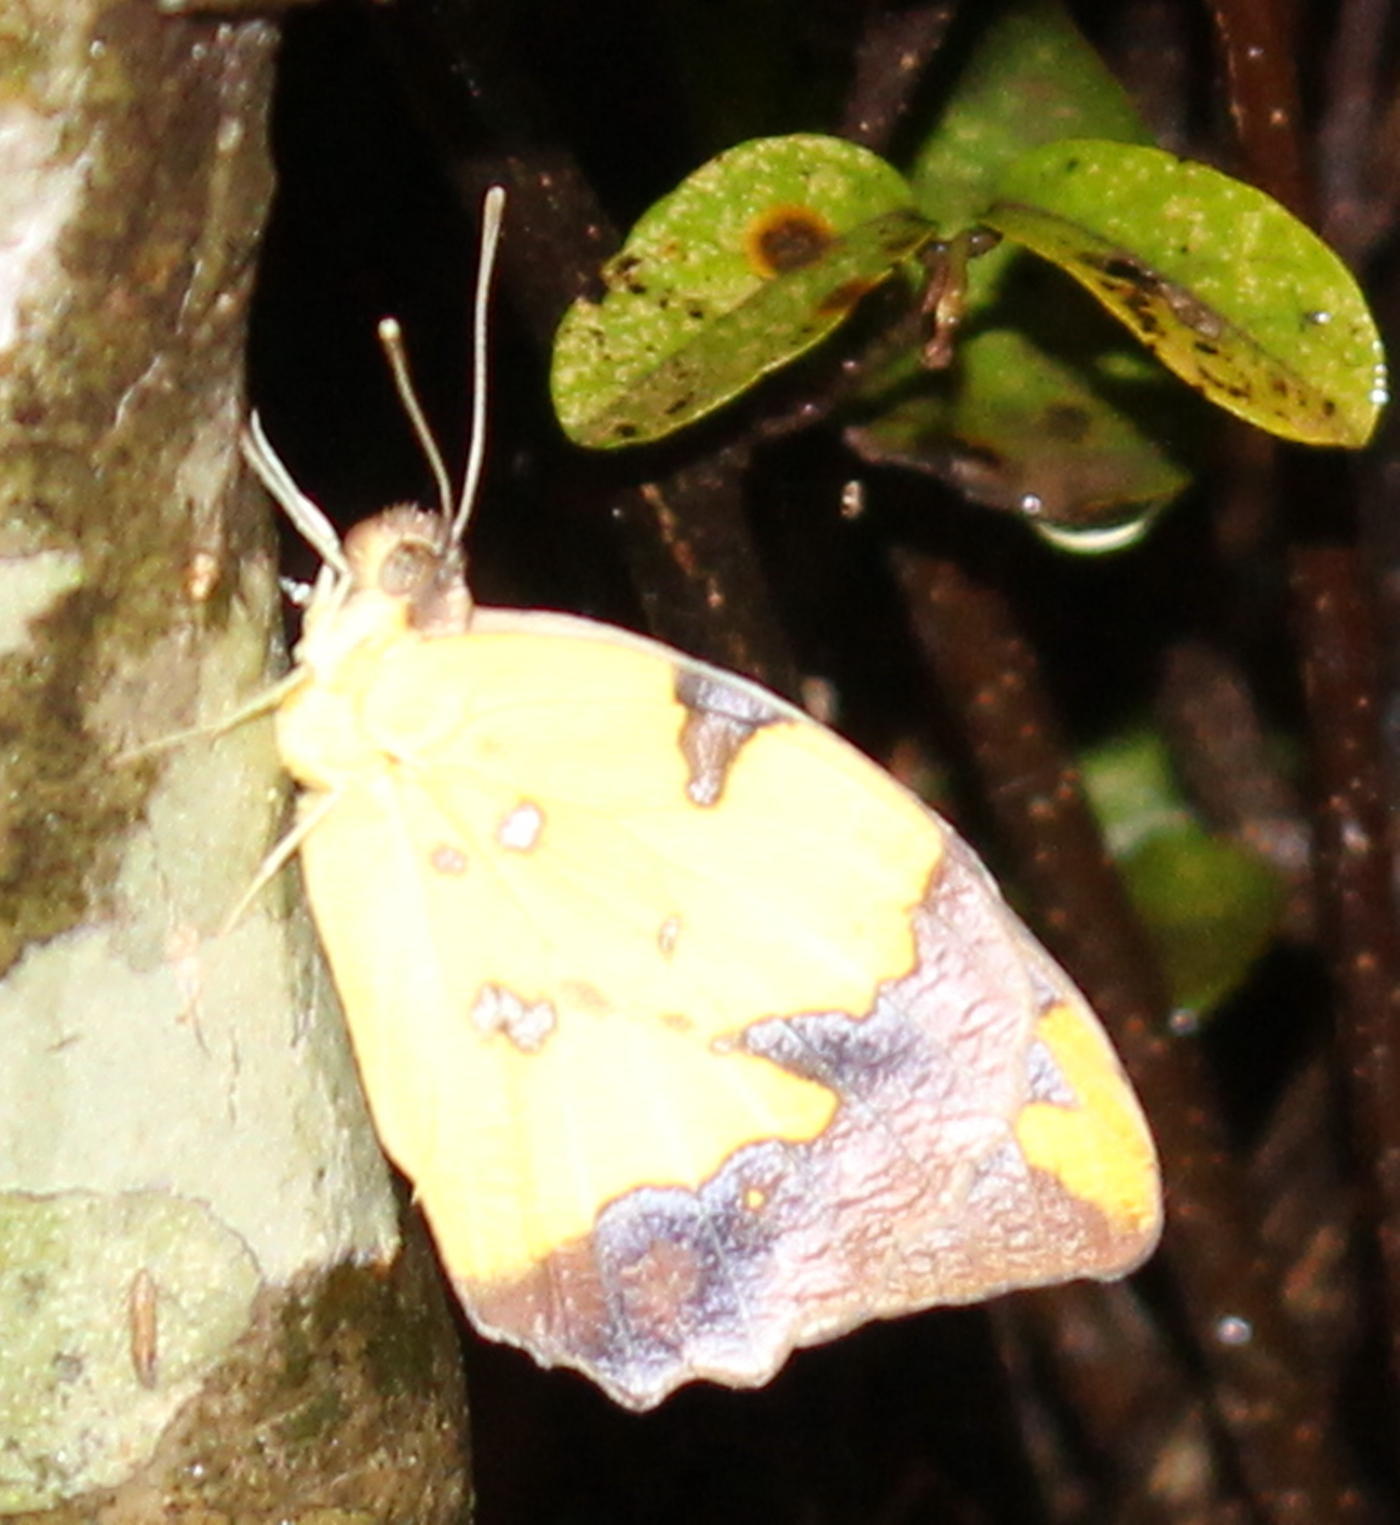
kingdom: Animalia
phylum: Arthropoda
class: Insecta
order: Lepidoptera
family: Pieridae
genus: Eronia
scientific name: Eronia cleodora
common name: Vine-leaf vagrant
